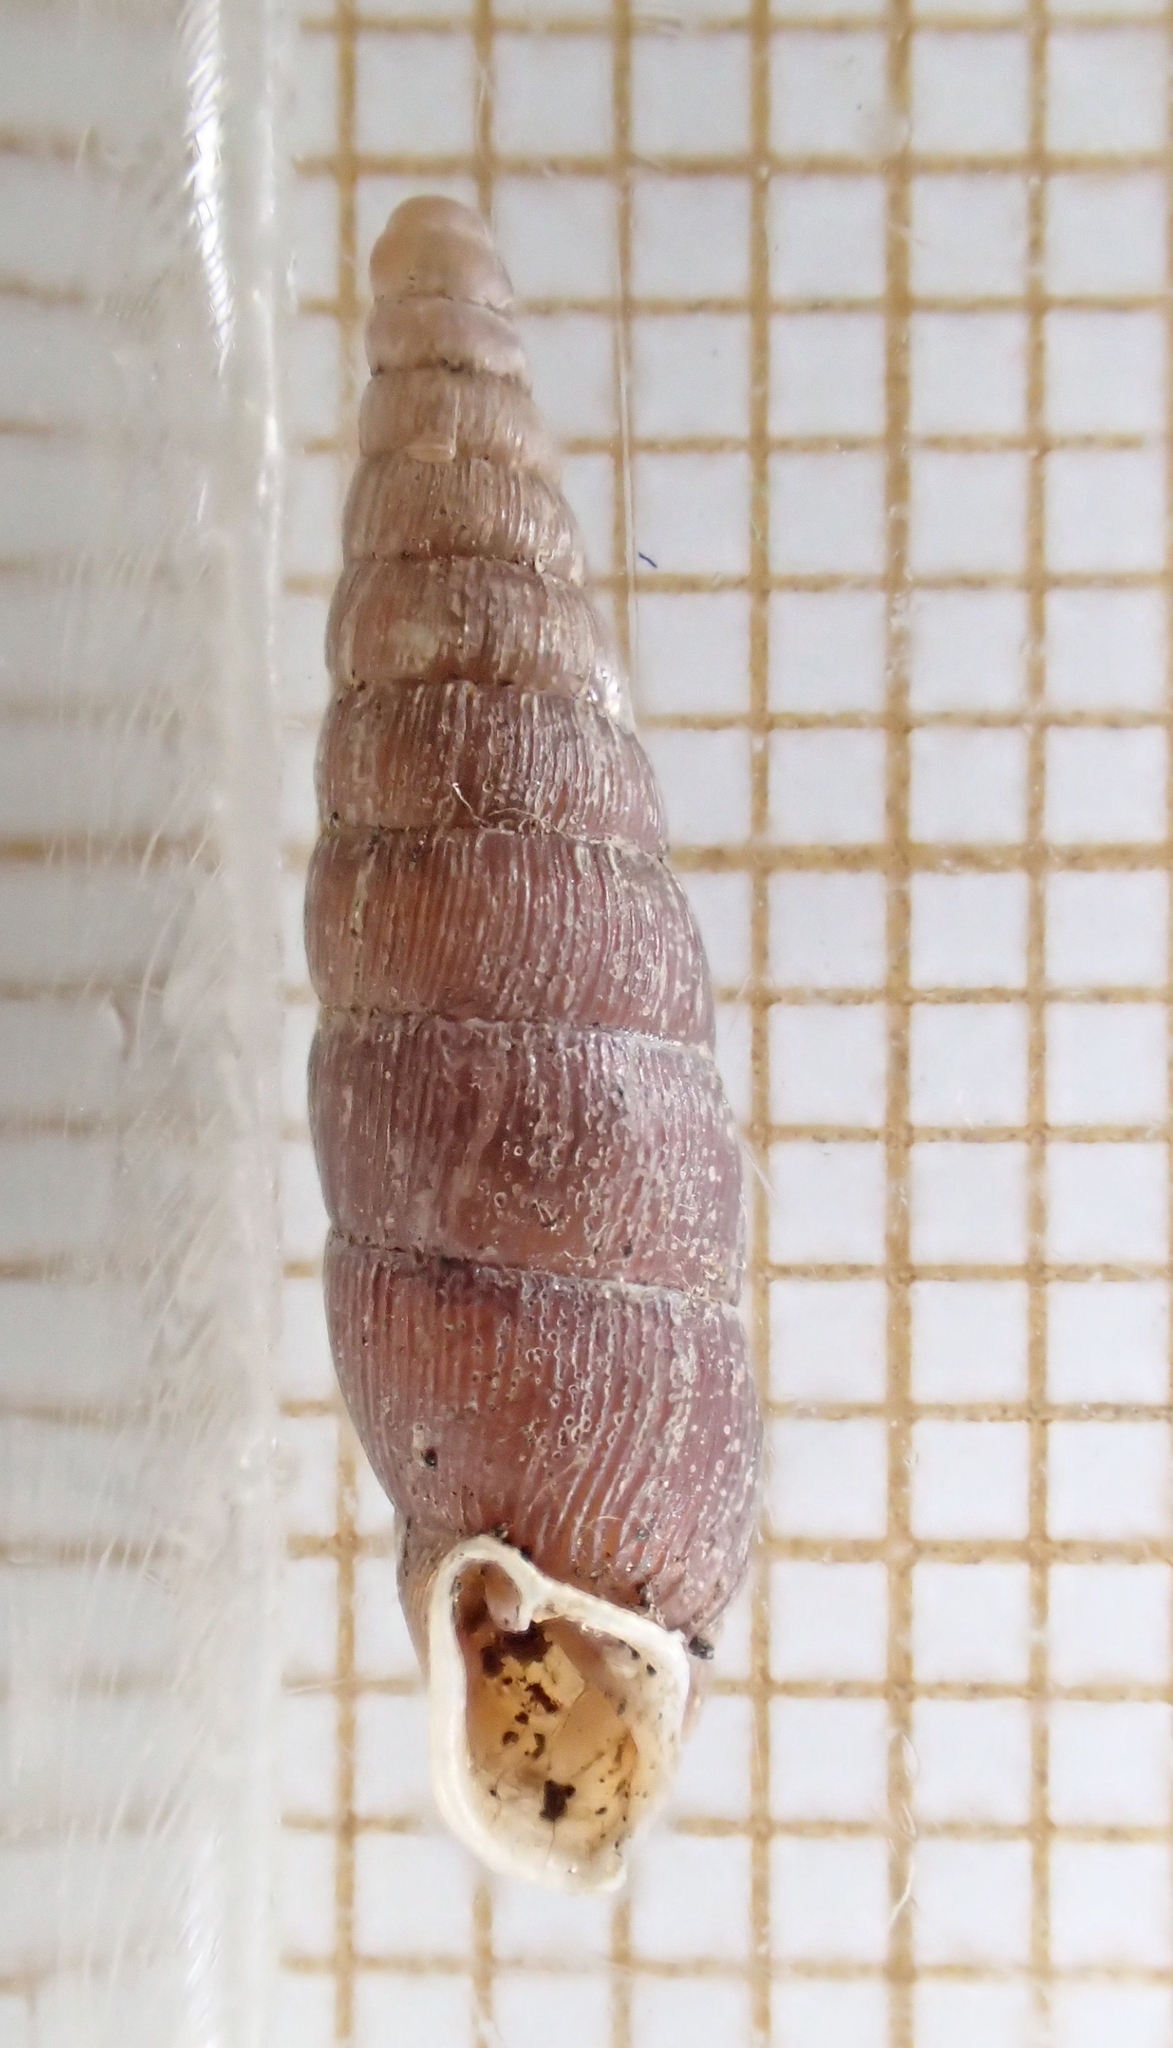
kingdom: Animalia
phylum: Mollusca
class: Gastropoda
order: Stylommatophora
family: Clausiliidae
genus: Clausilia
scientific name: Clausilia bidentata
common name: Two-toothed door snail
